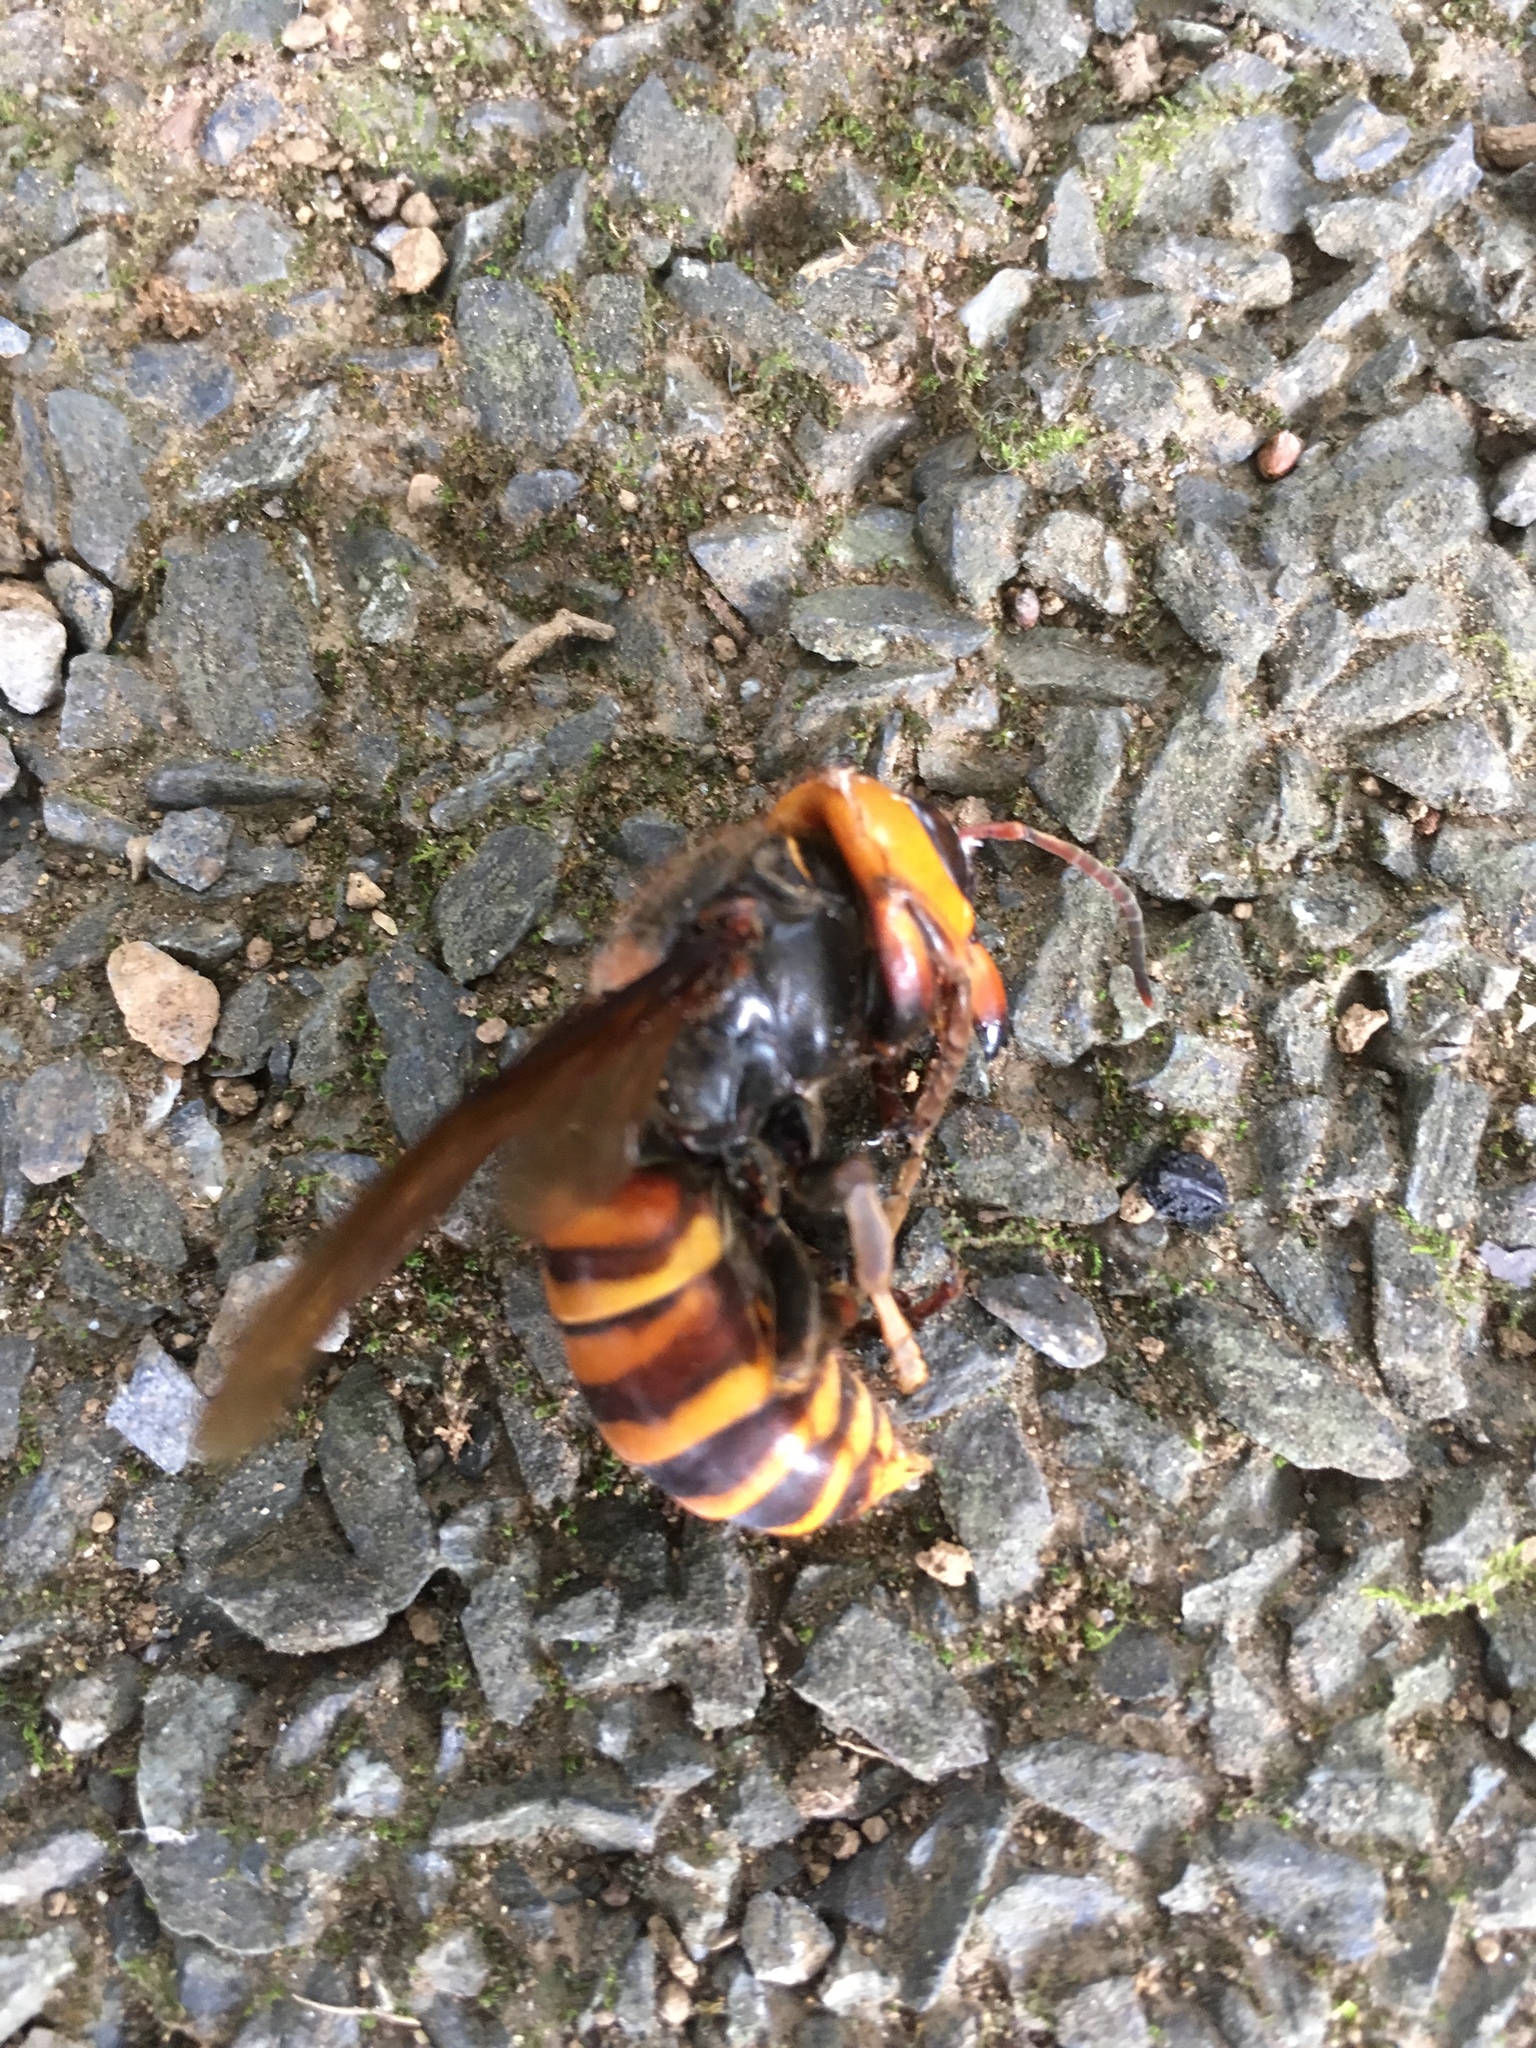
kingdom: Animalia
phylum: Arthropoda
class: Insecta
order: Hymenoptera
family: Vespidae
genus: Vespa
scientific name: Vespa mandarinia
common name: Asian giant hornet
